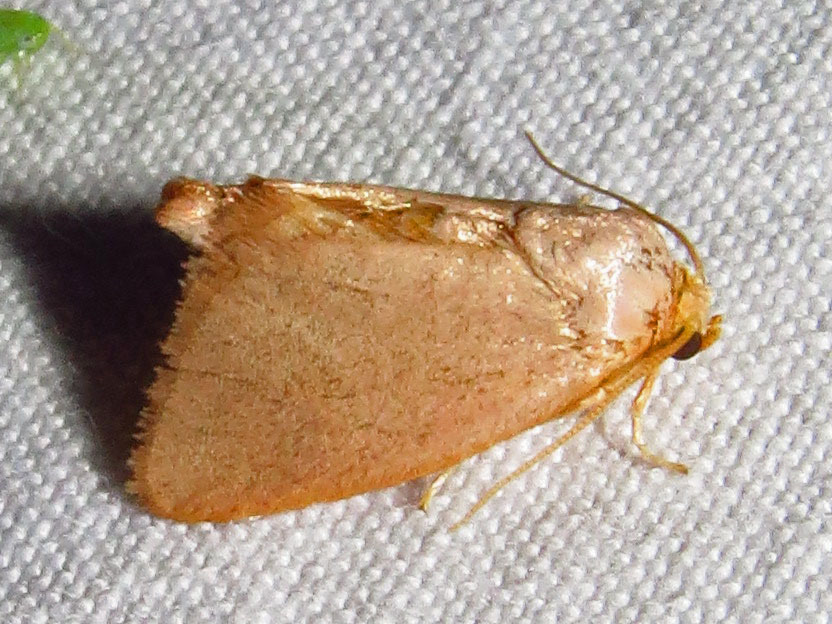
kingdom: Animalia
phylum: Arthropoda
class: Insecta
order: Lepidoptera
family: Limacodidae
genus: Tortricidia
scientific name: Tortricidia pallida
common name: Red-crossed button slug moth
